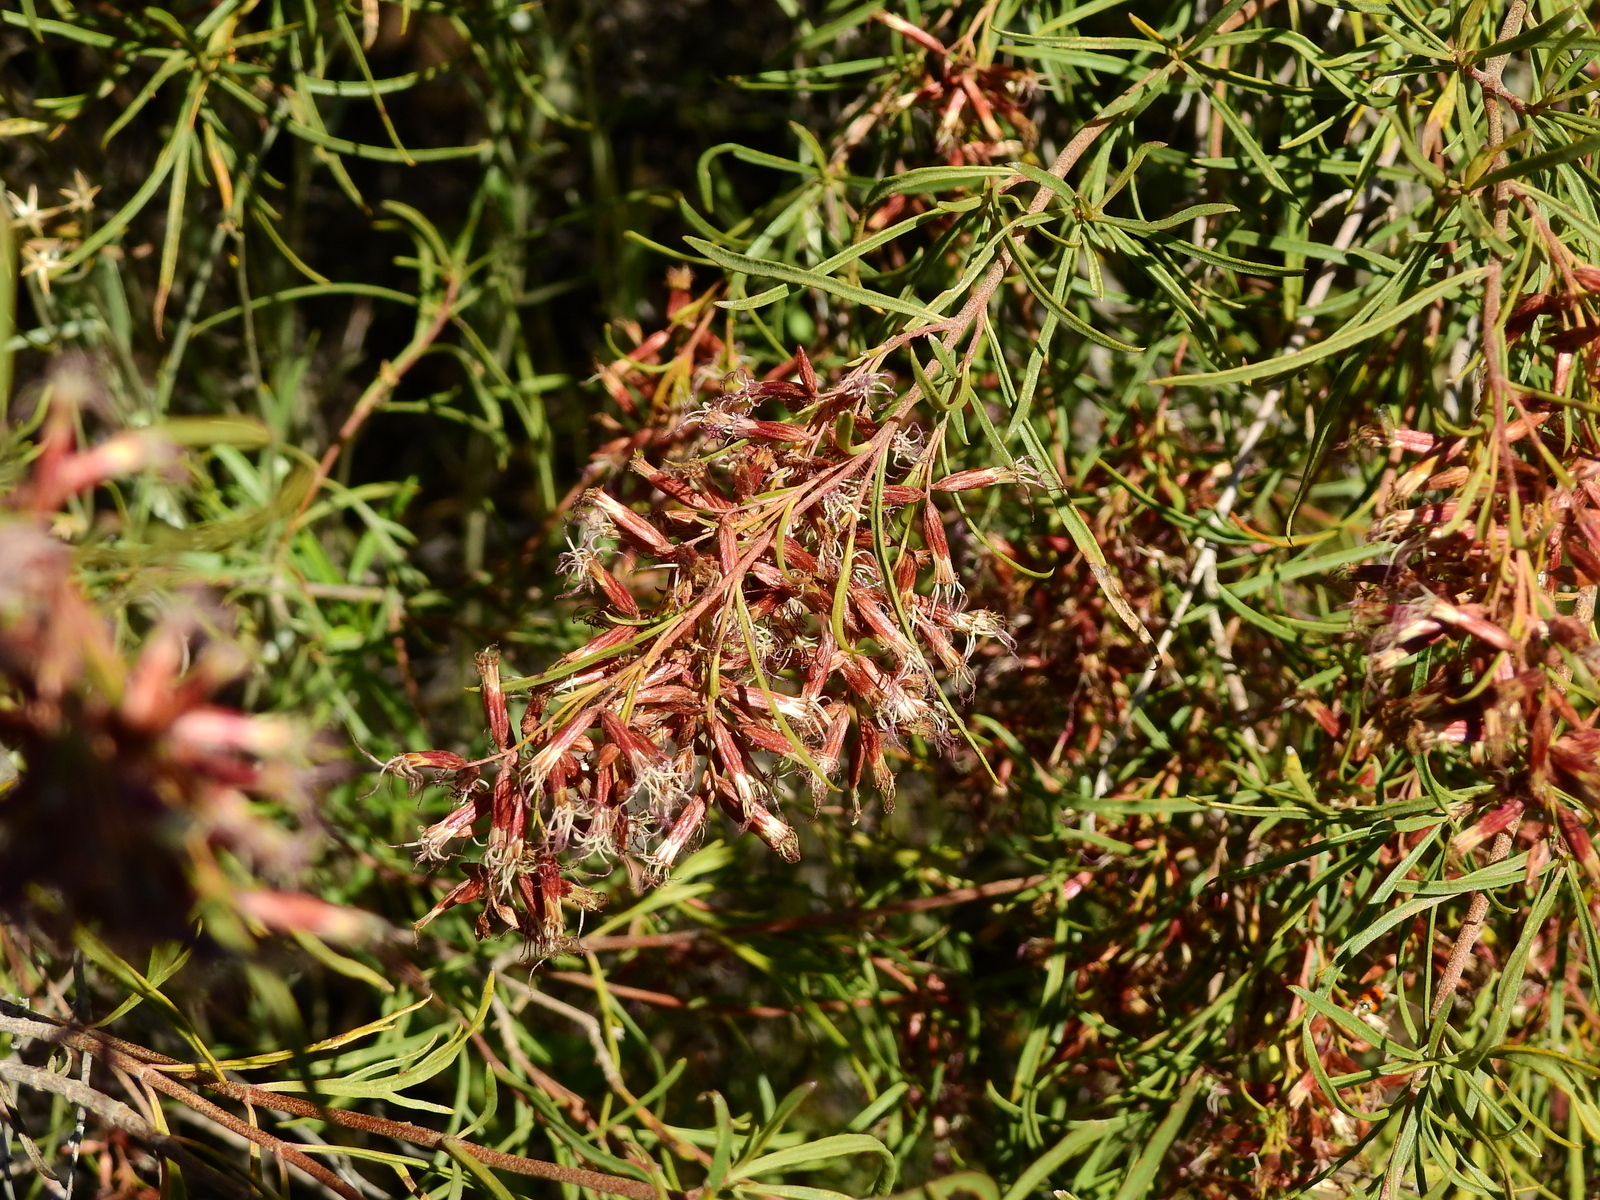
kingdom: Plantae
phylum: Tracheophyta
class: Magnoliopsida
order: Asterales
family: Asteraceae
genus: Acanthostyles
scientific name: Acanthostyles buniifolius
